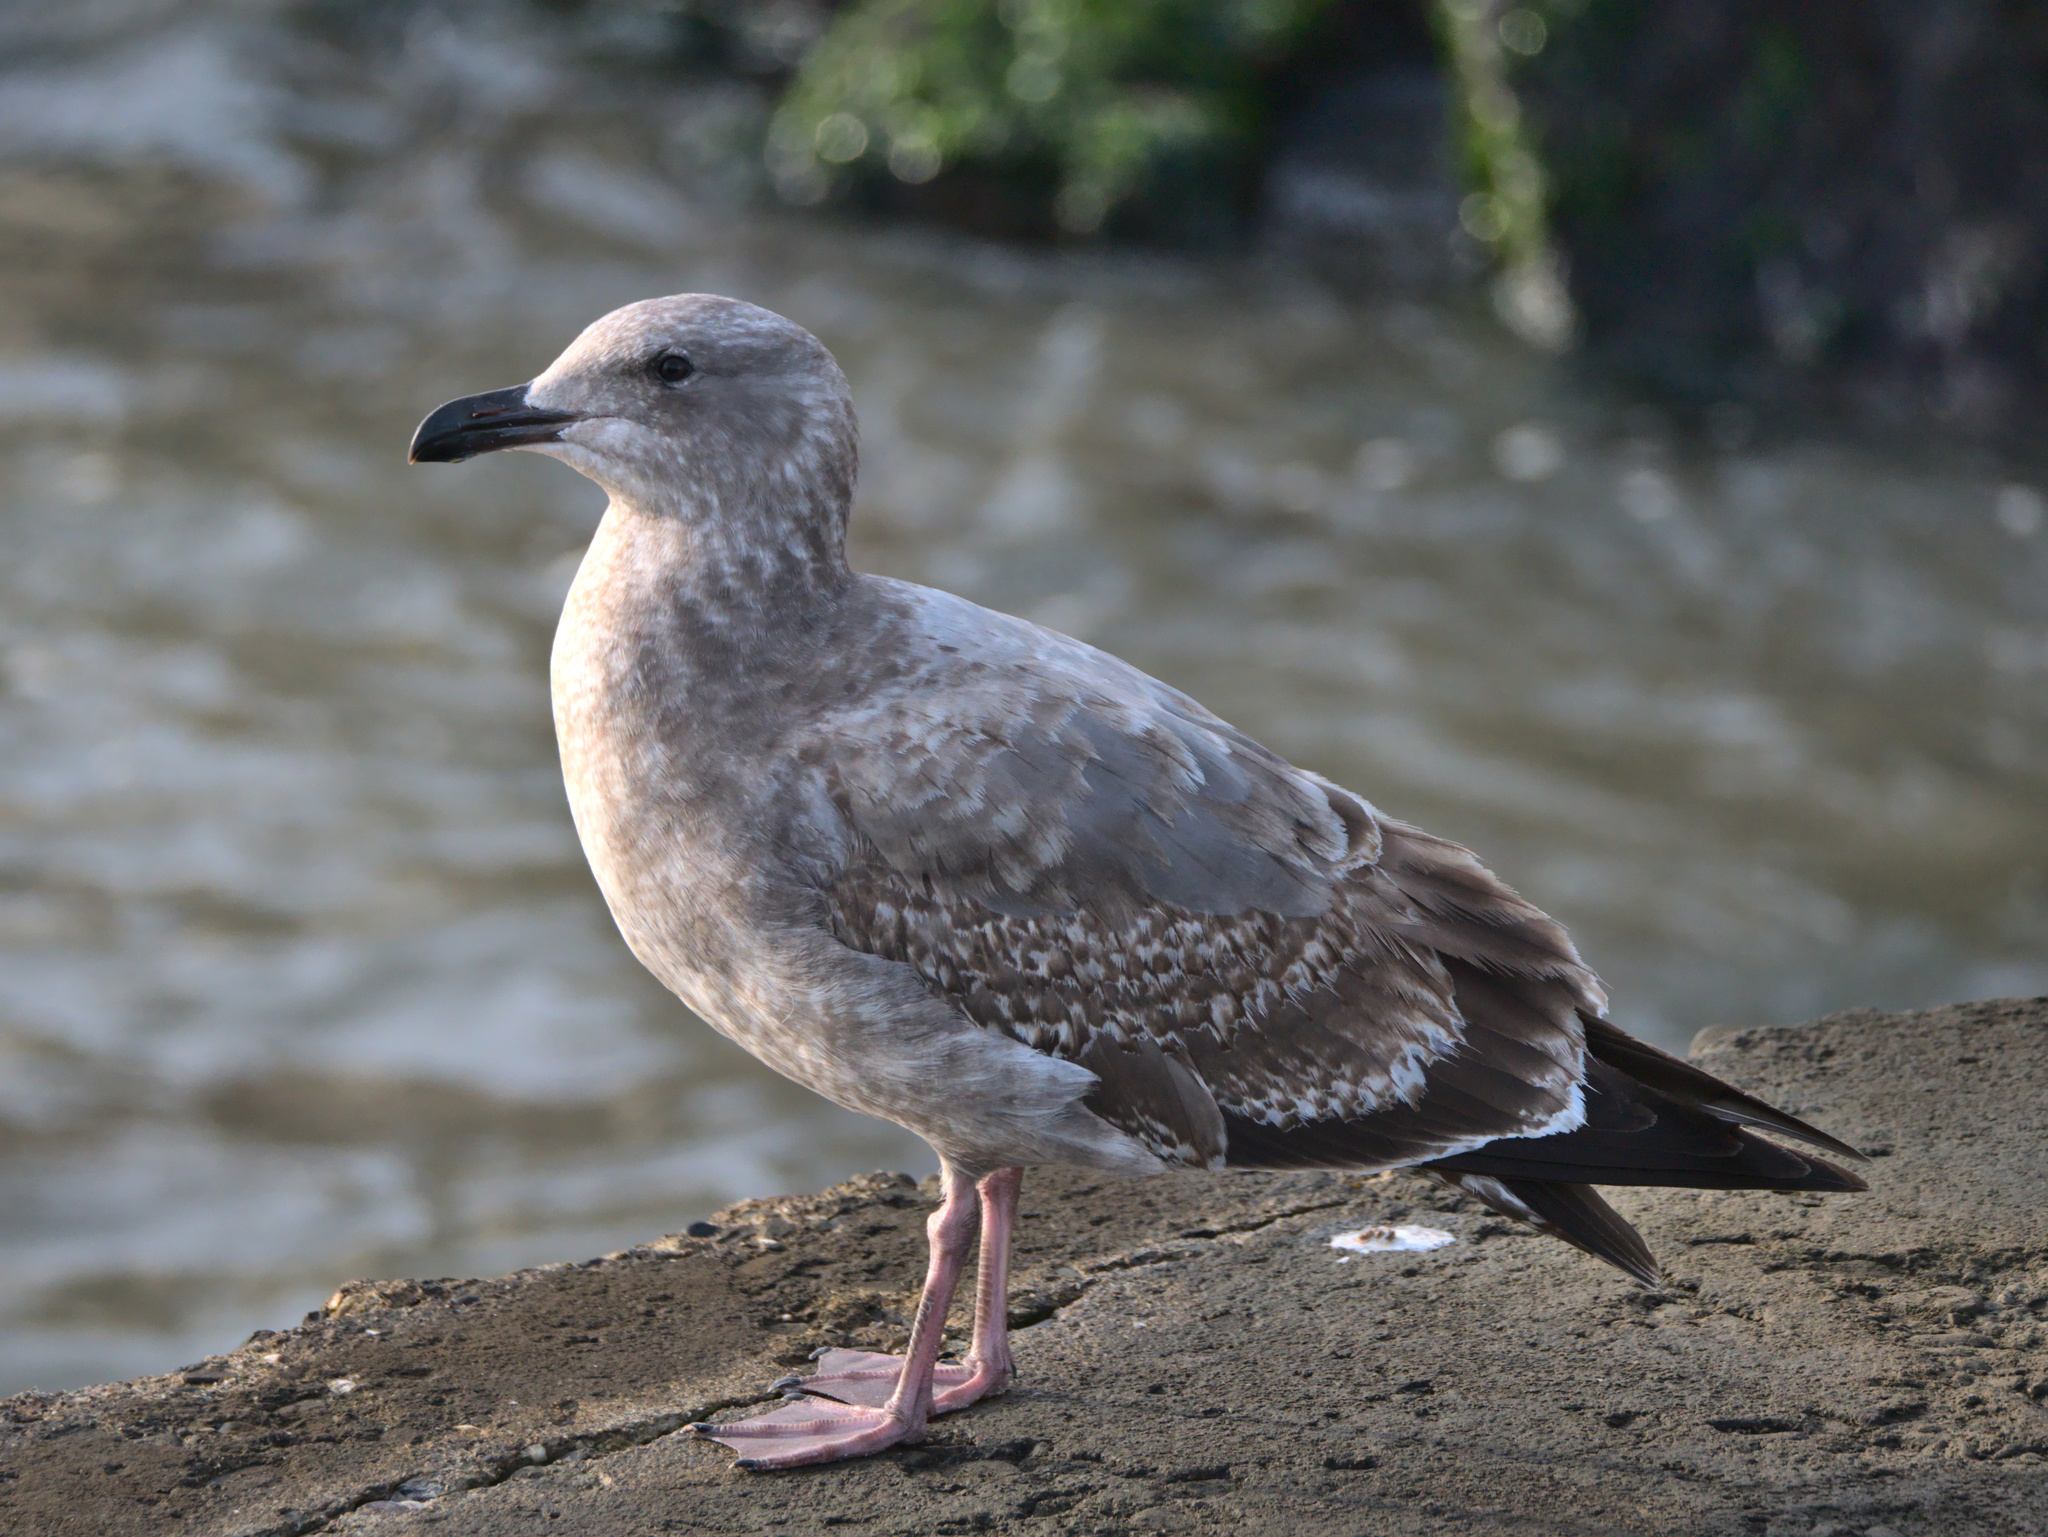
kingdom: Animalia
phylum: Chordata
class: Aves
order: Charadriiformes
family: Laridae
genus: Larus
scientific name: Larus occidentalis
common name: Western gull
